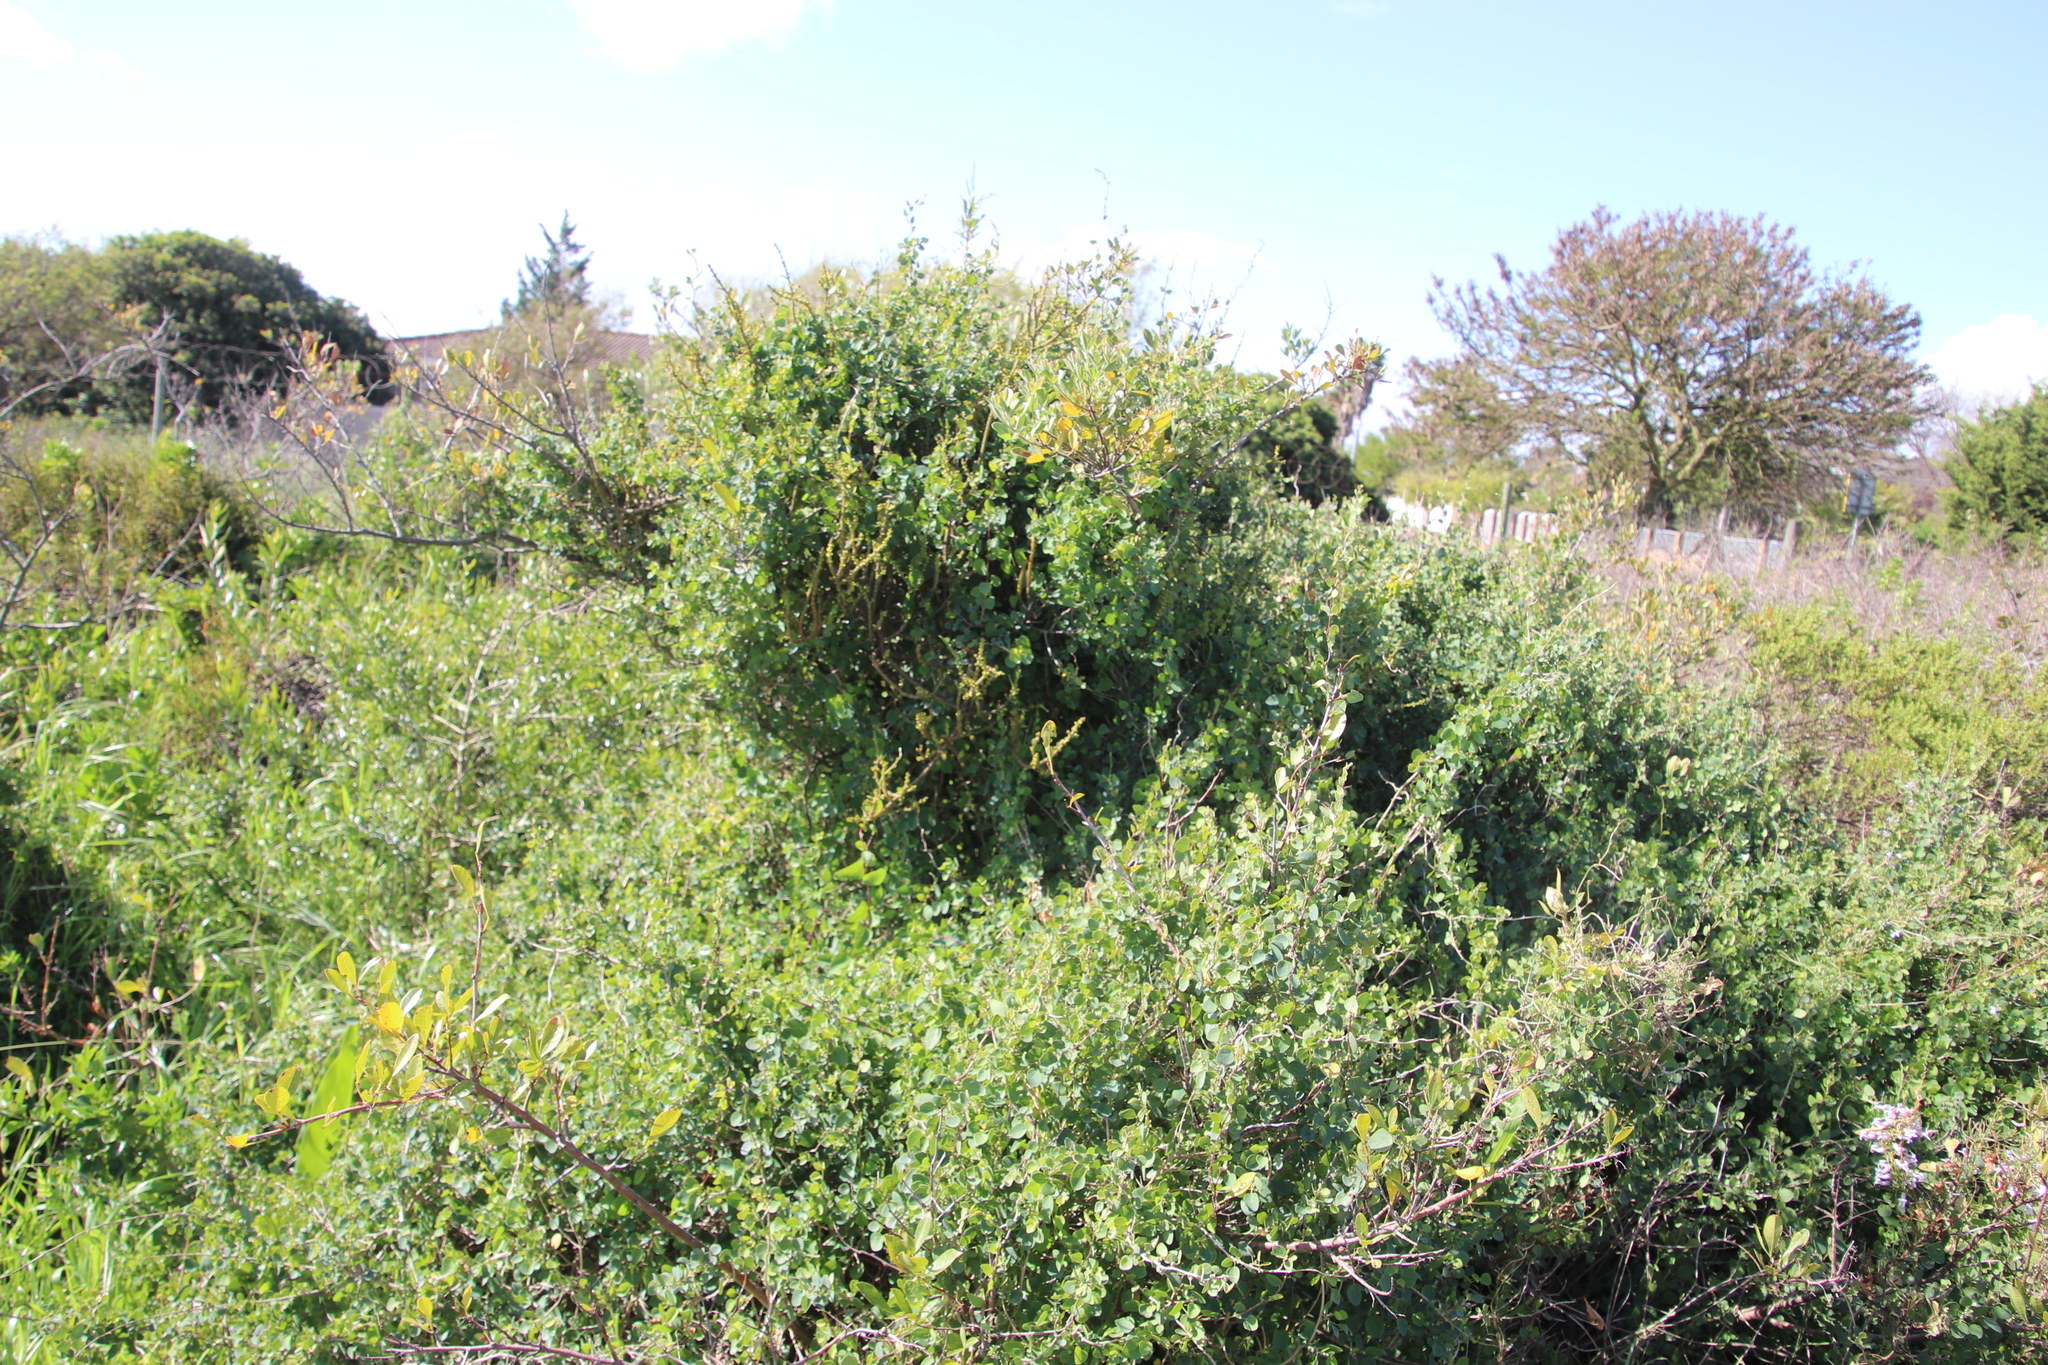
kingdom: Plantae
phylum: Tracheophyta
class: Magnoliopsida
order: Ranunculales
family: Menispermaceae
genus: Cissampelos
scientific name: Cissampelos capensis
